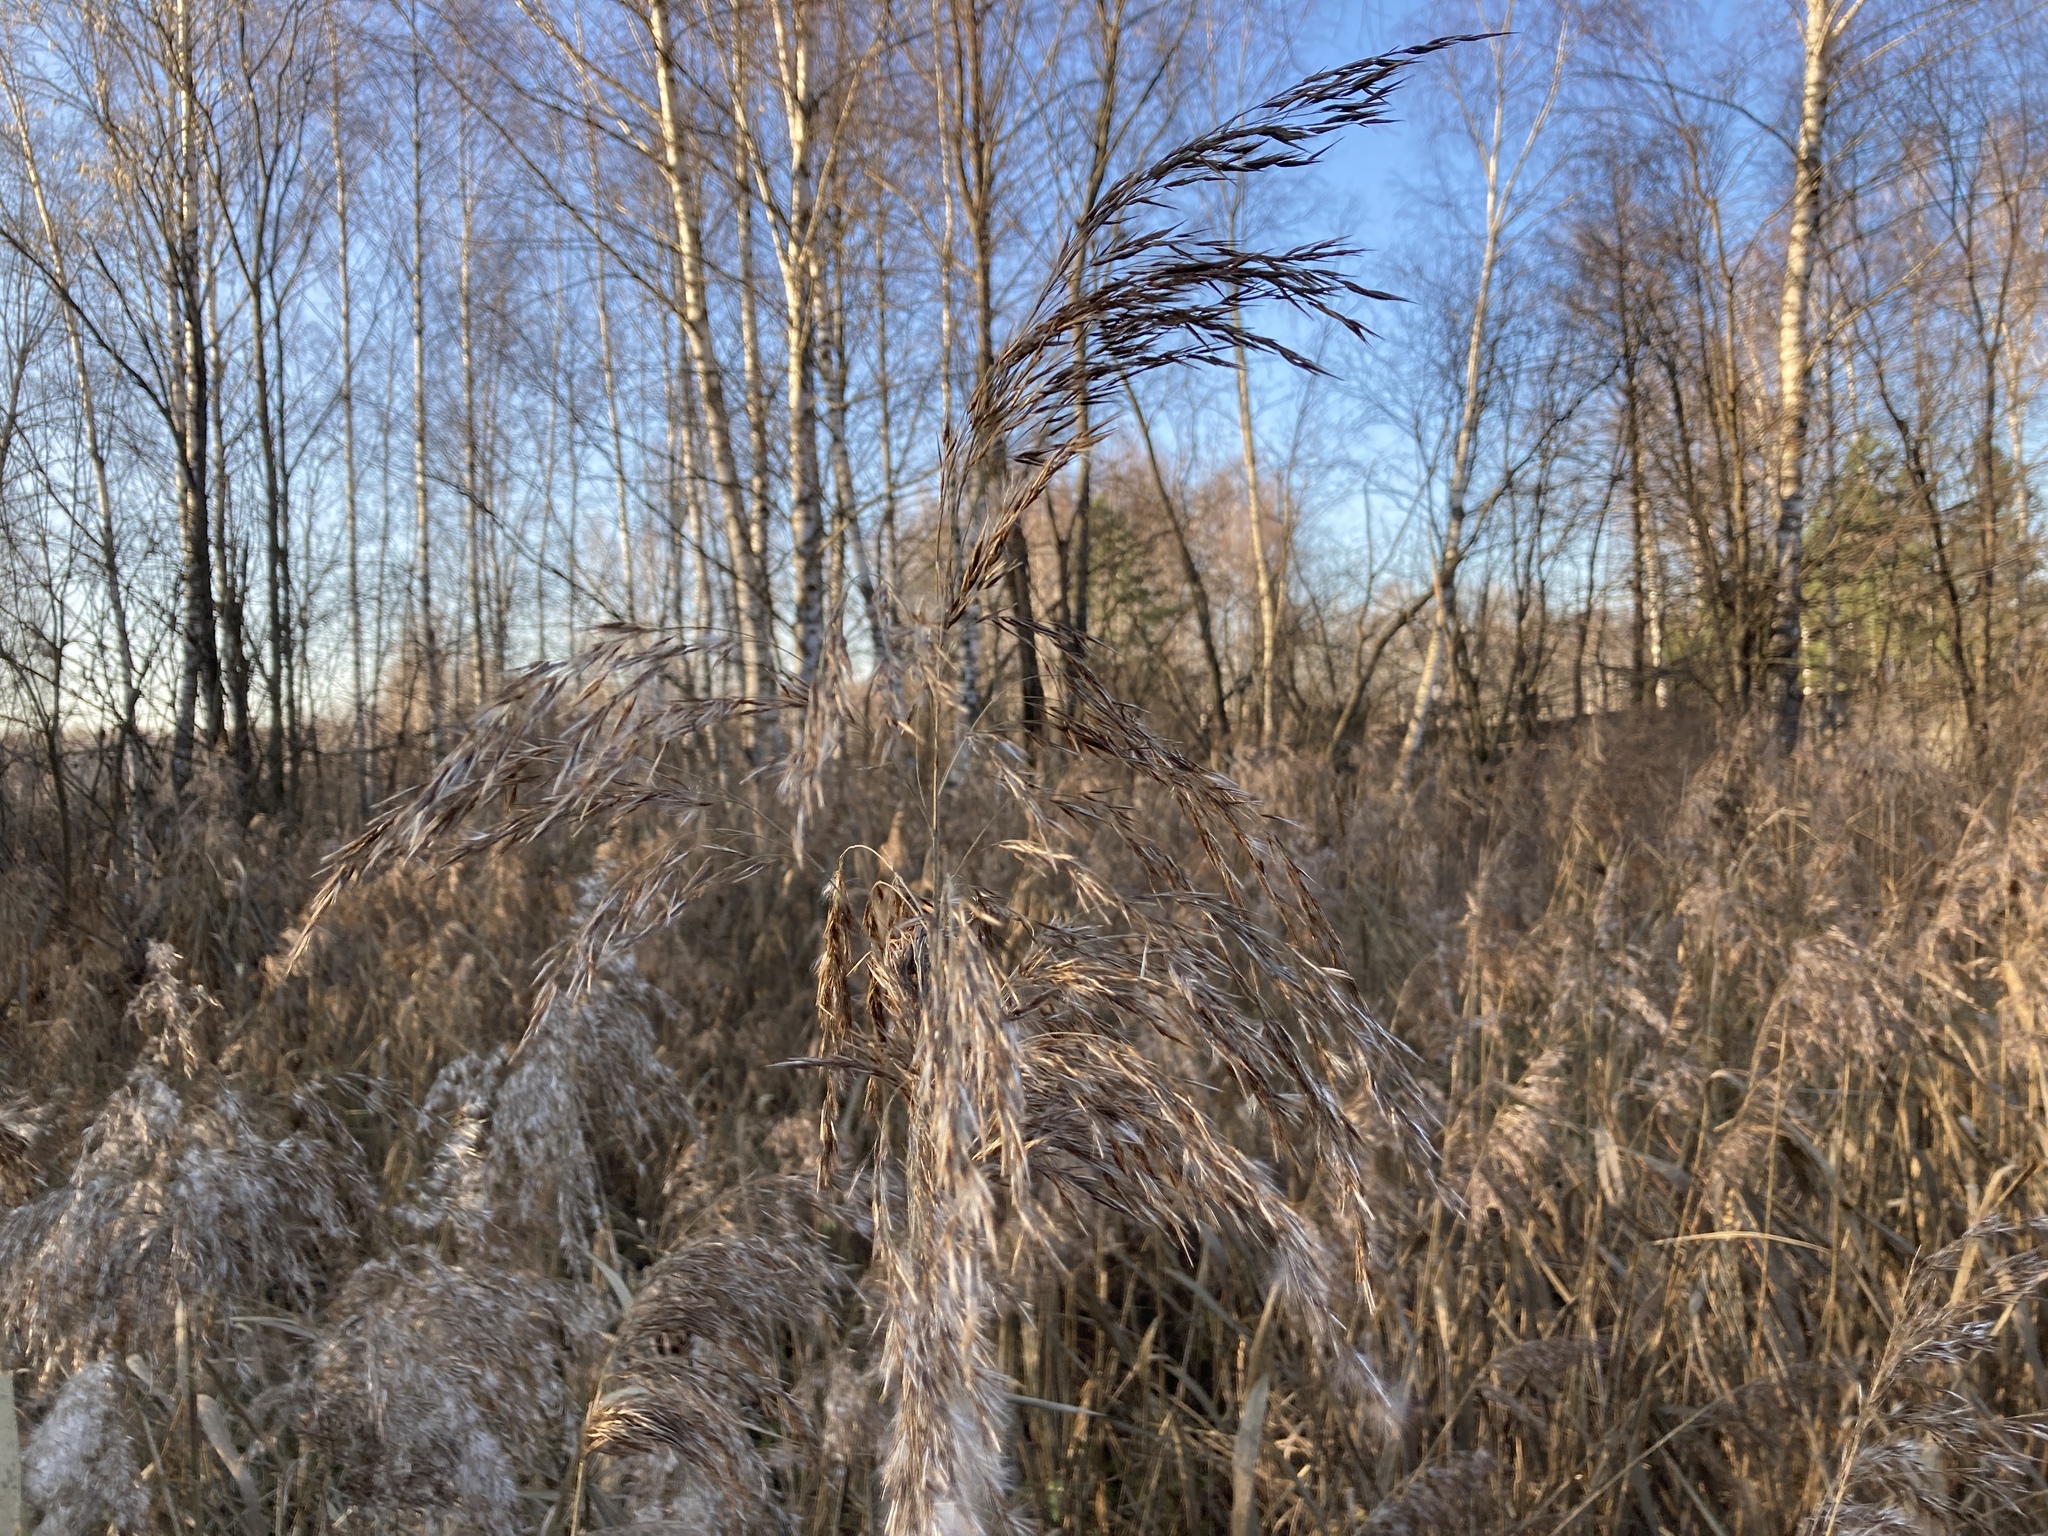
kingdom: Plantae
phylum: Tracheophyta
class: Liliopsida
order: Poales
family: Poaceae
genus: Phragmites
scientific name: Phragmites australis
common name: Common reed
